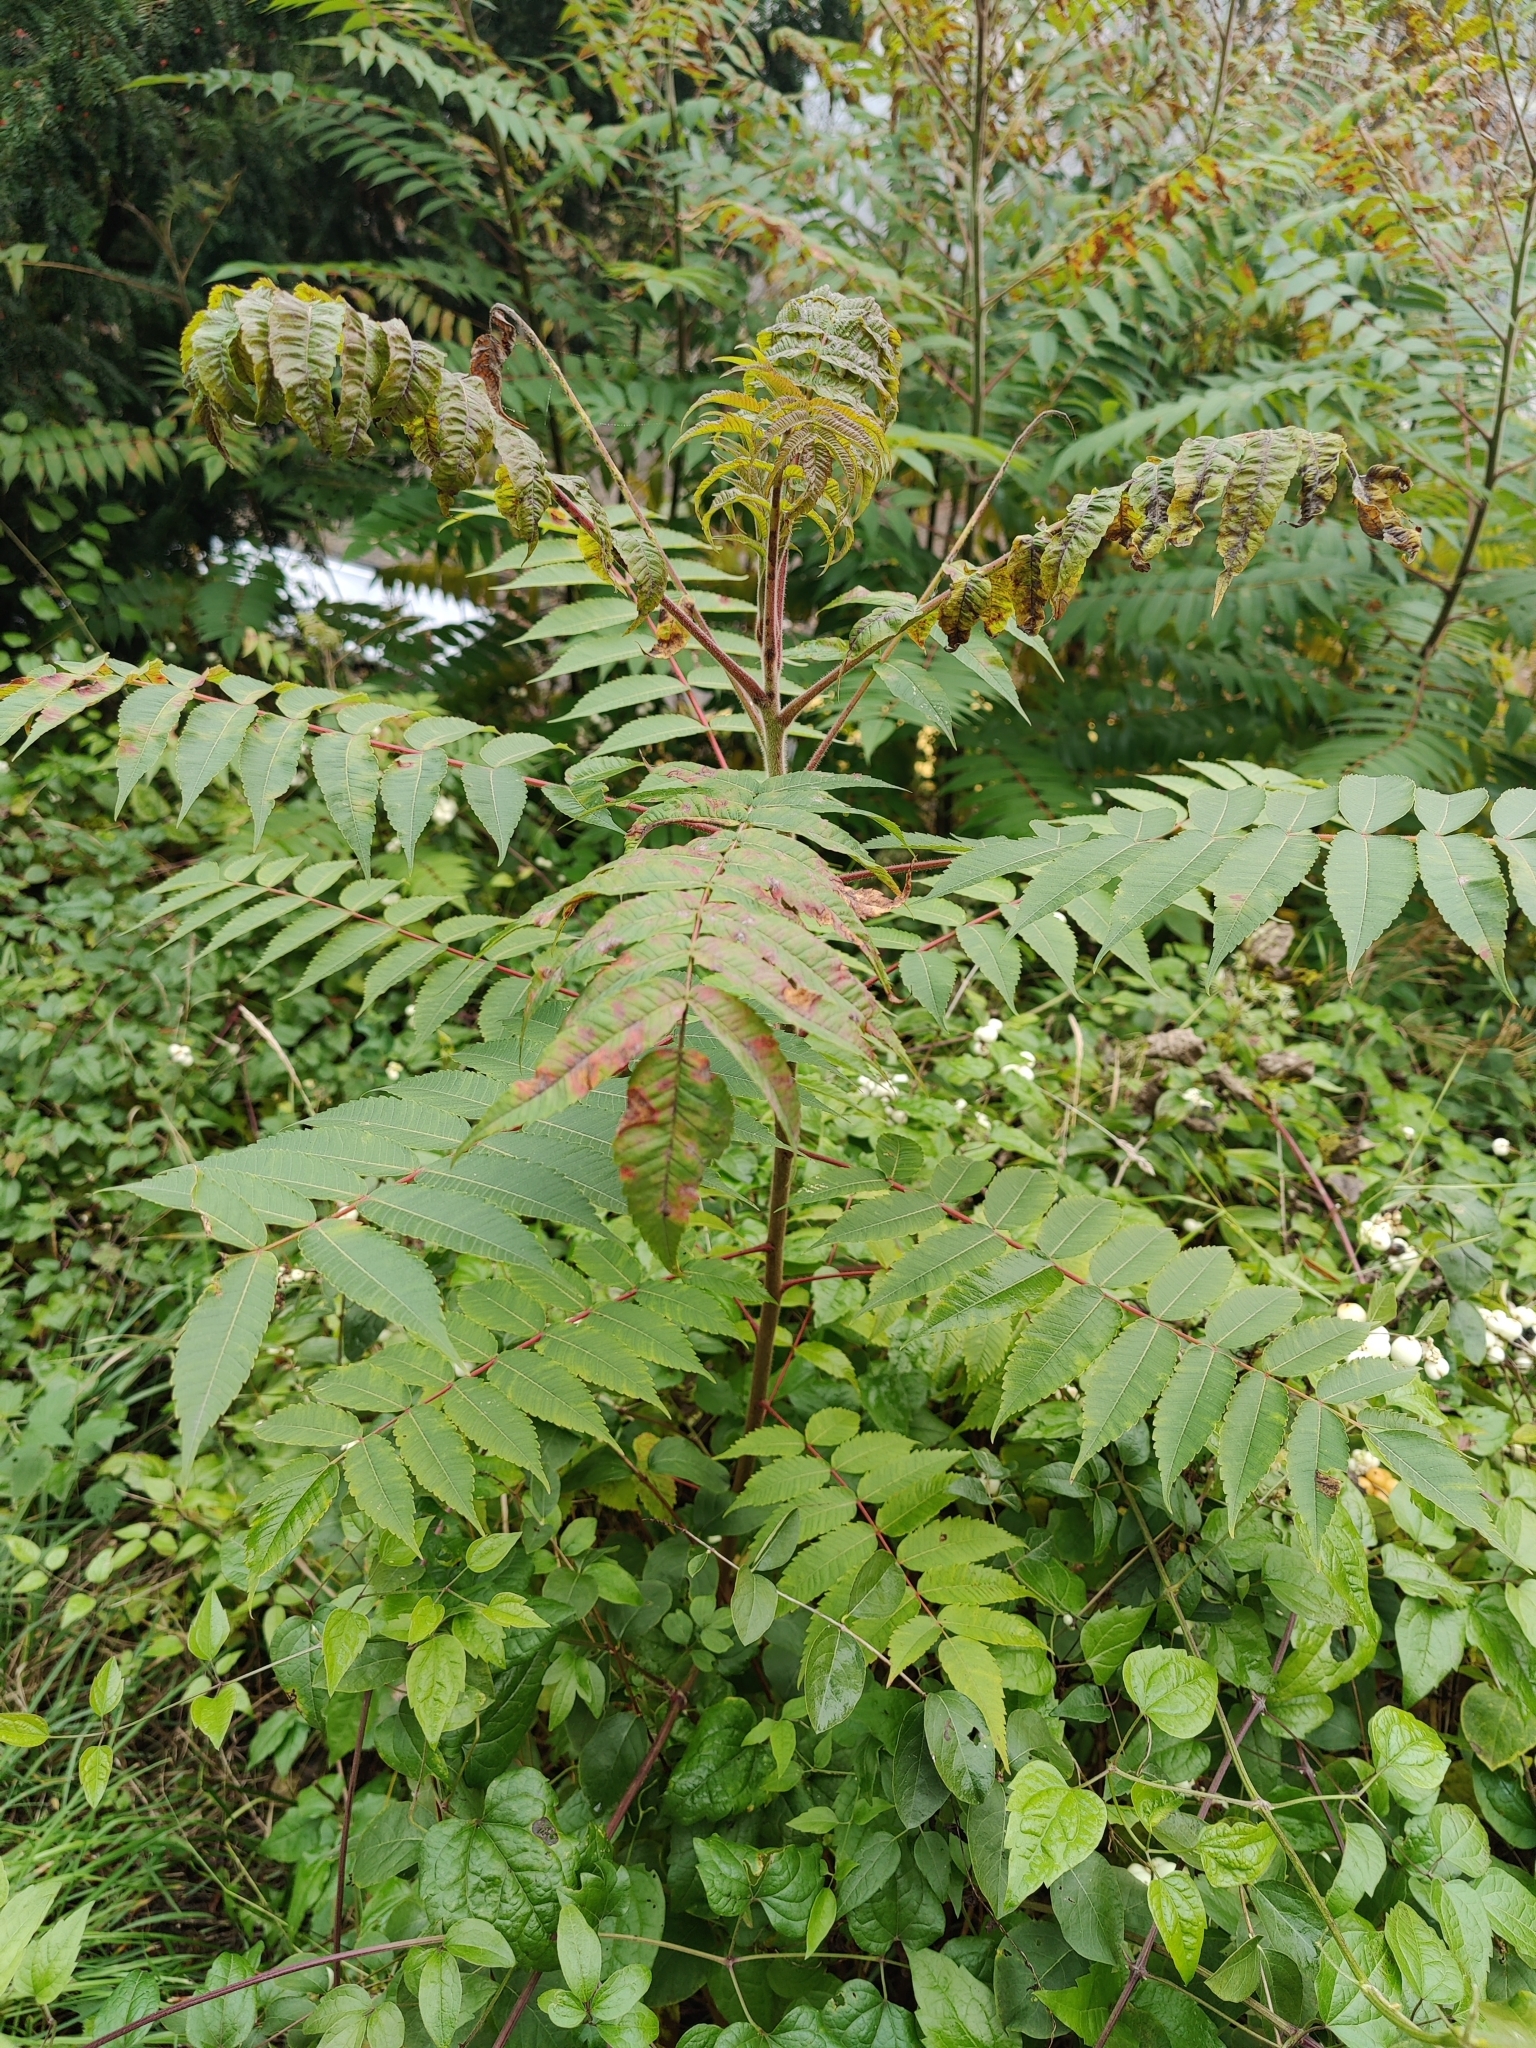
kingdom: Plantae
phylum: Tracheophyta
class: Magnoliopsida
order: Sapindales
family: Anacardiaceae
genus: Rhus
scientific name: Rhus typhina
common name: Staghorn sumac
